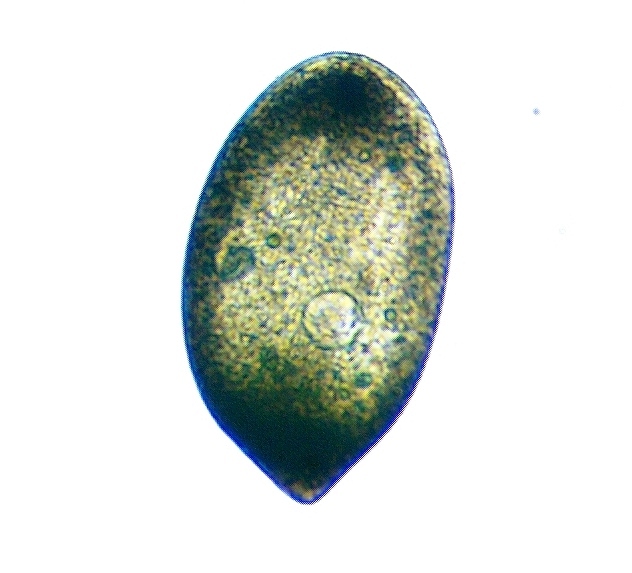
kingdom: Chromista
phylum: Ciliophora
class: Oligohymenophorea
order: Hymenostomatida
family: Frontoniidae
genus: Frontonia
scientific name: Frontonia atra
